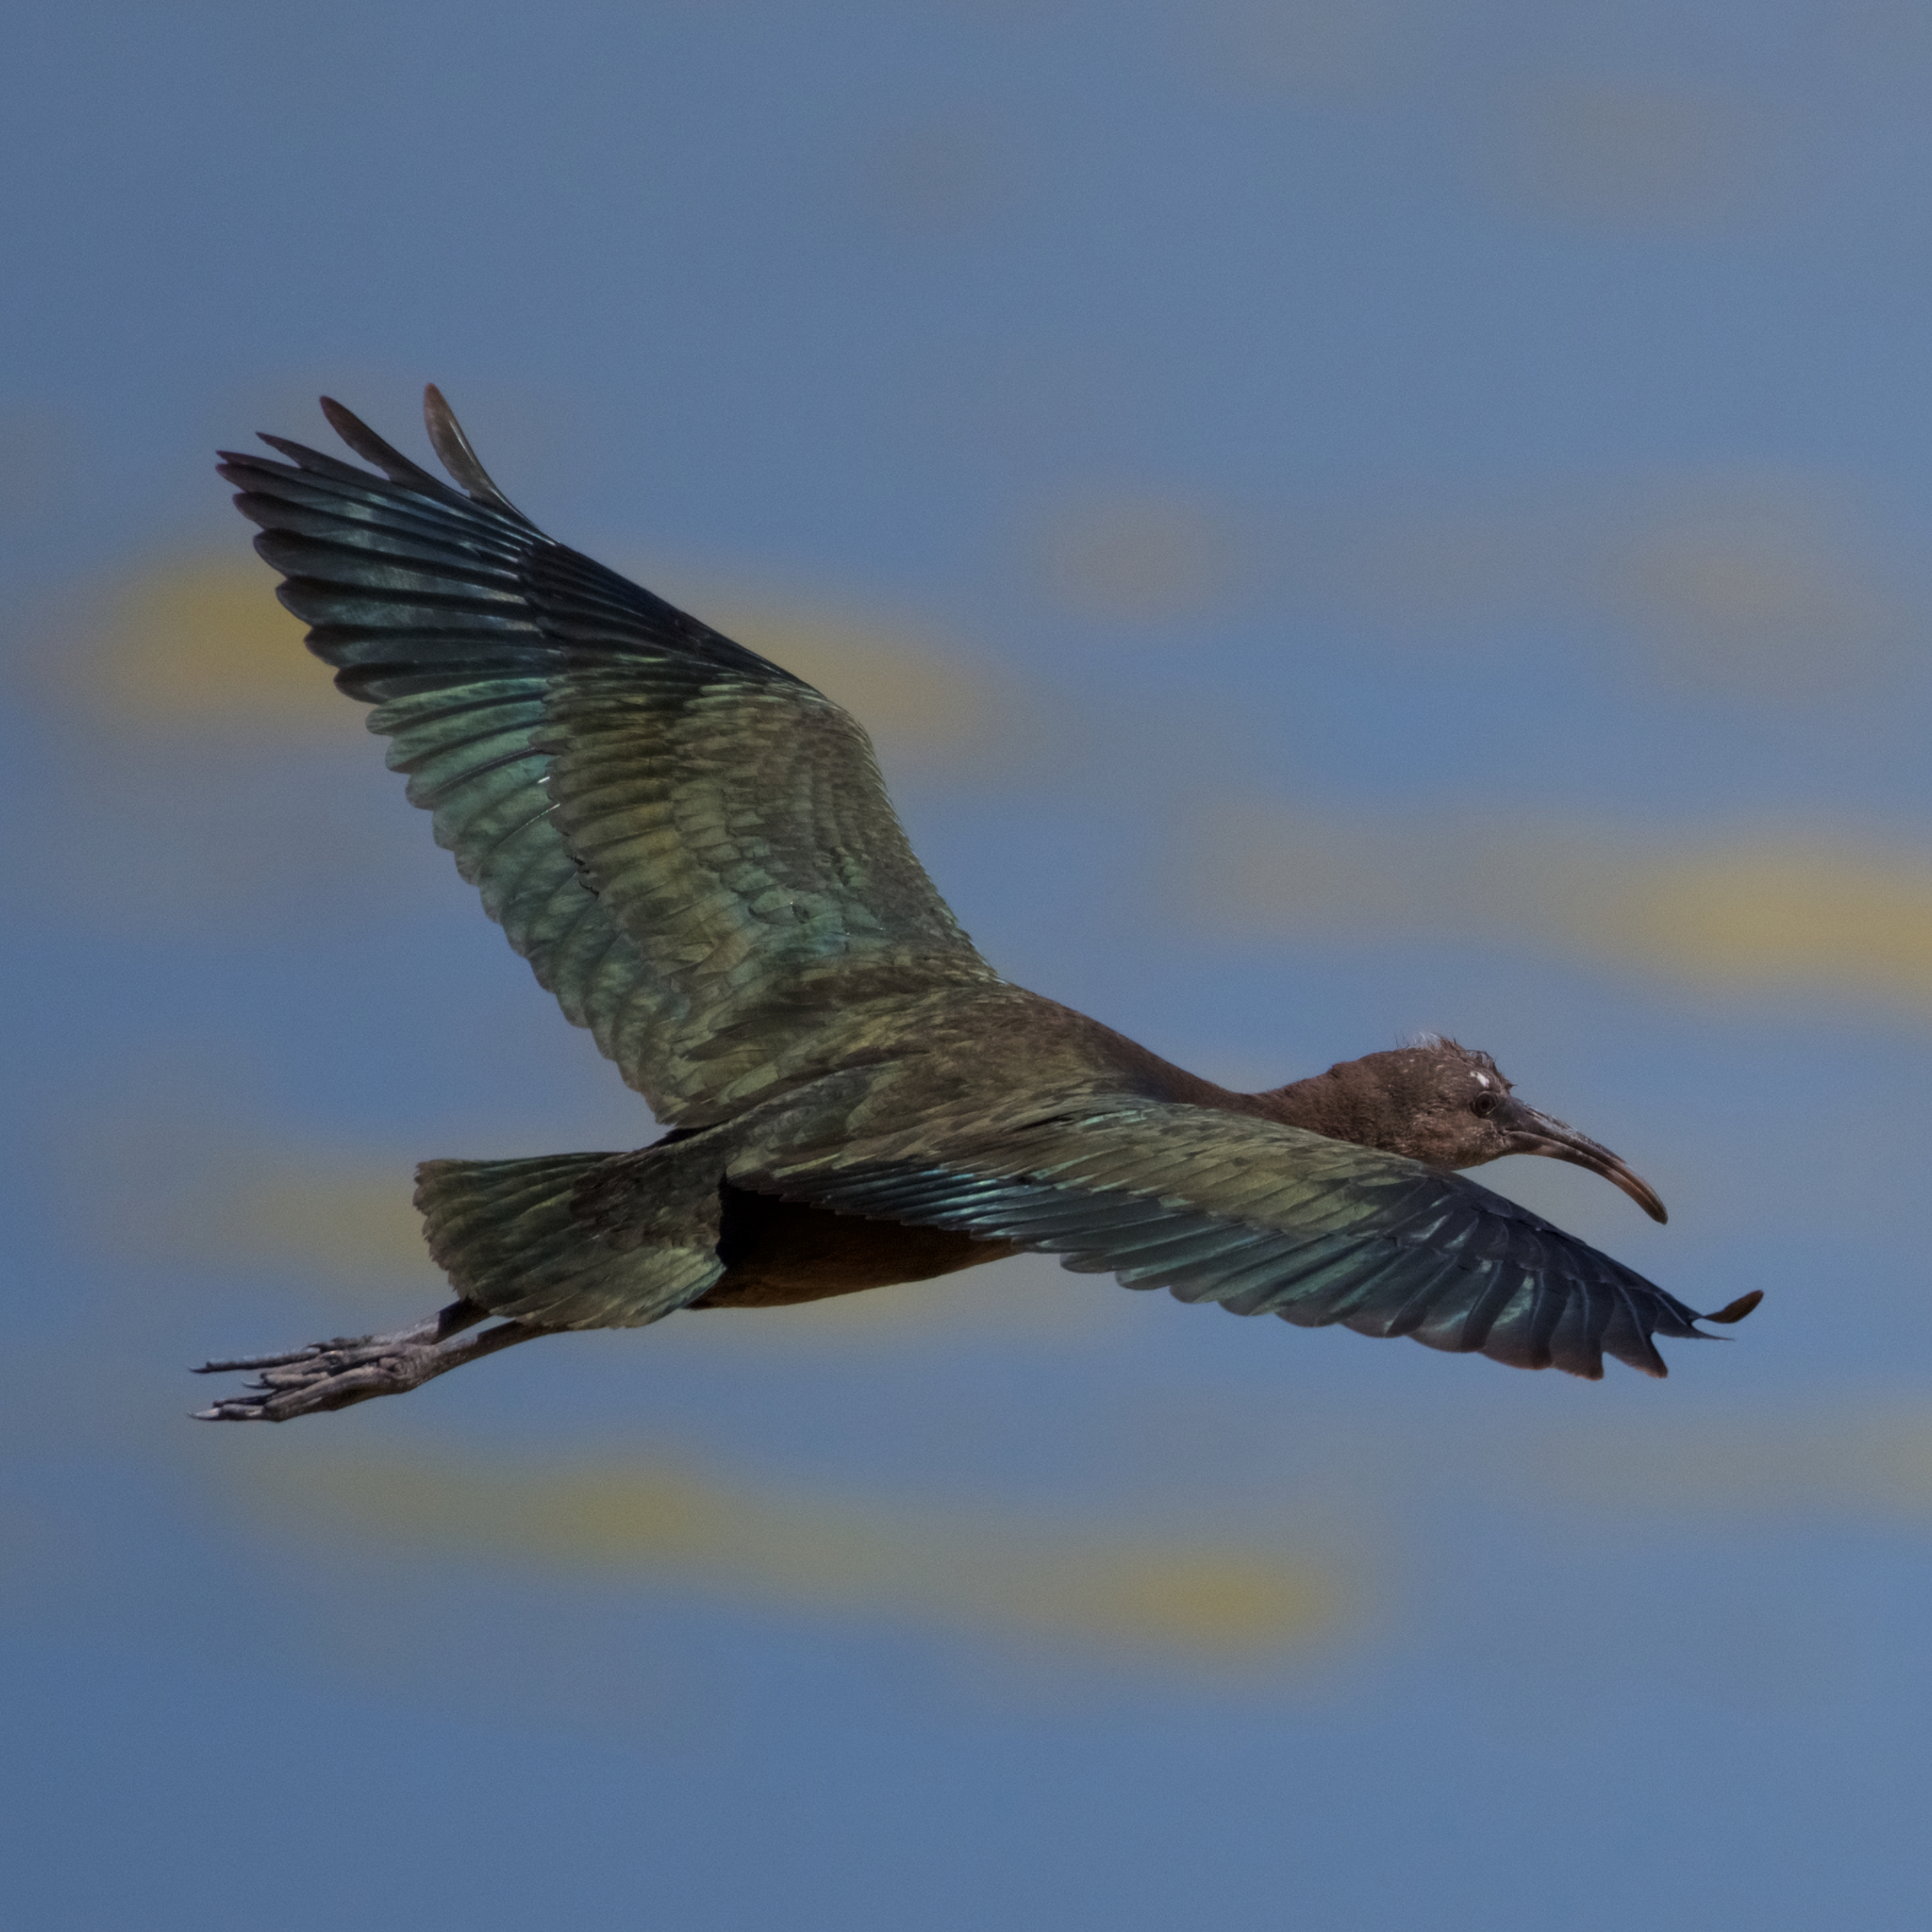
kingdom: Animalia
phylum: Chordata
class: Aves
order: Pelecaniformes
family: Threskiornithidae
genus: Plegadis
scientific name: Plegadis chihi
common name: White-faced ibis
